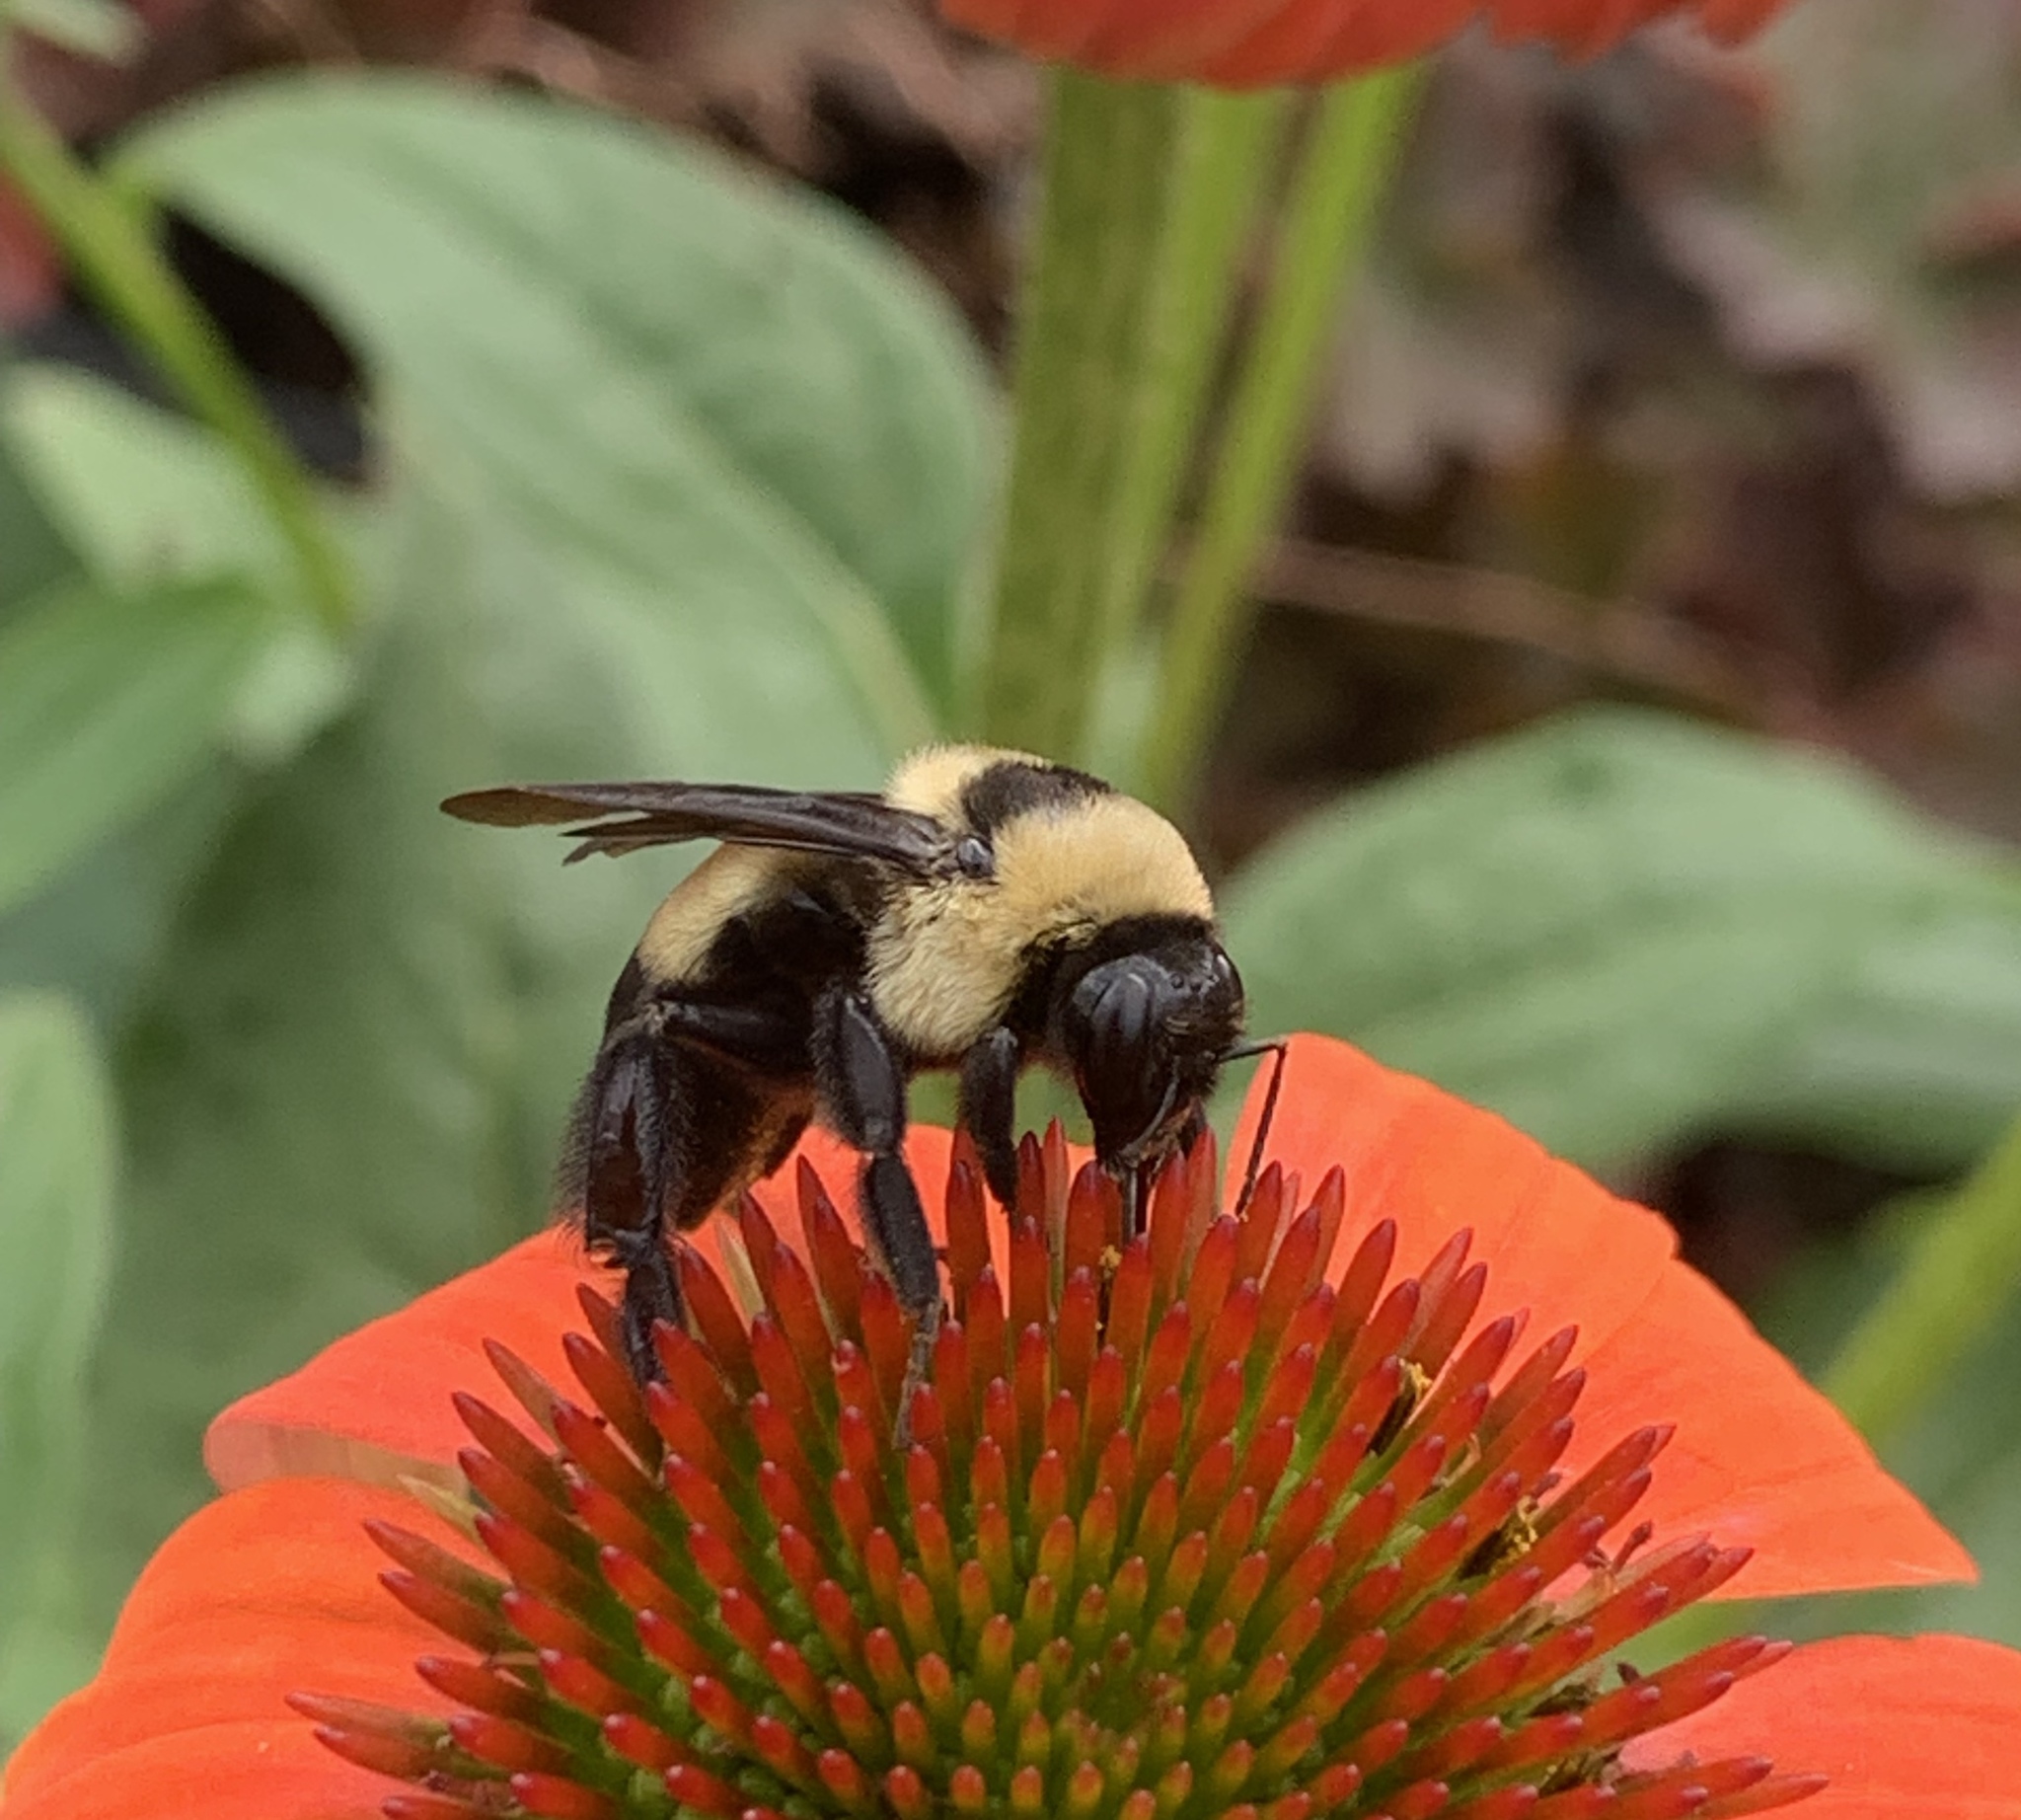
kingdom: Animalia
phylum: Arthropoda
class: Insecta
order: Hymenoptera
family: Apidae
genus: Bombus
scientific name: Bombus fraternus
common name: Southern plains bumble bee
